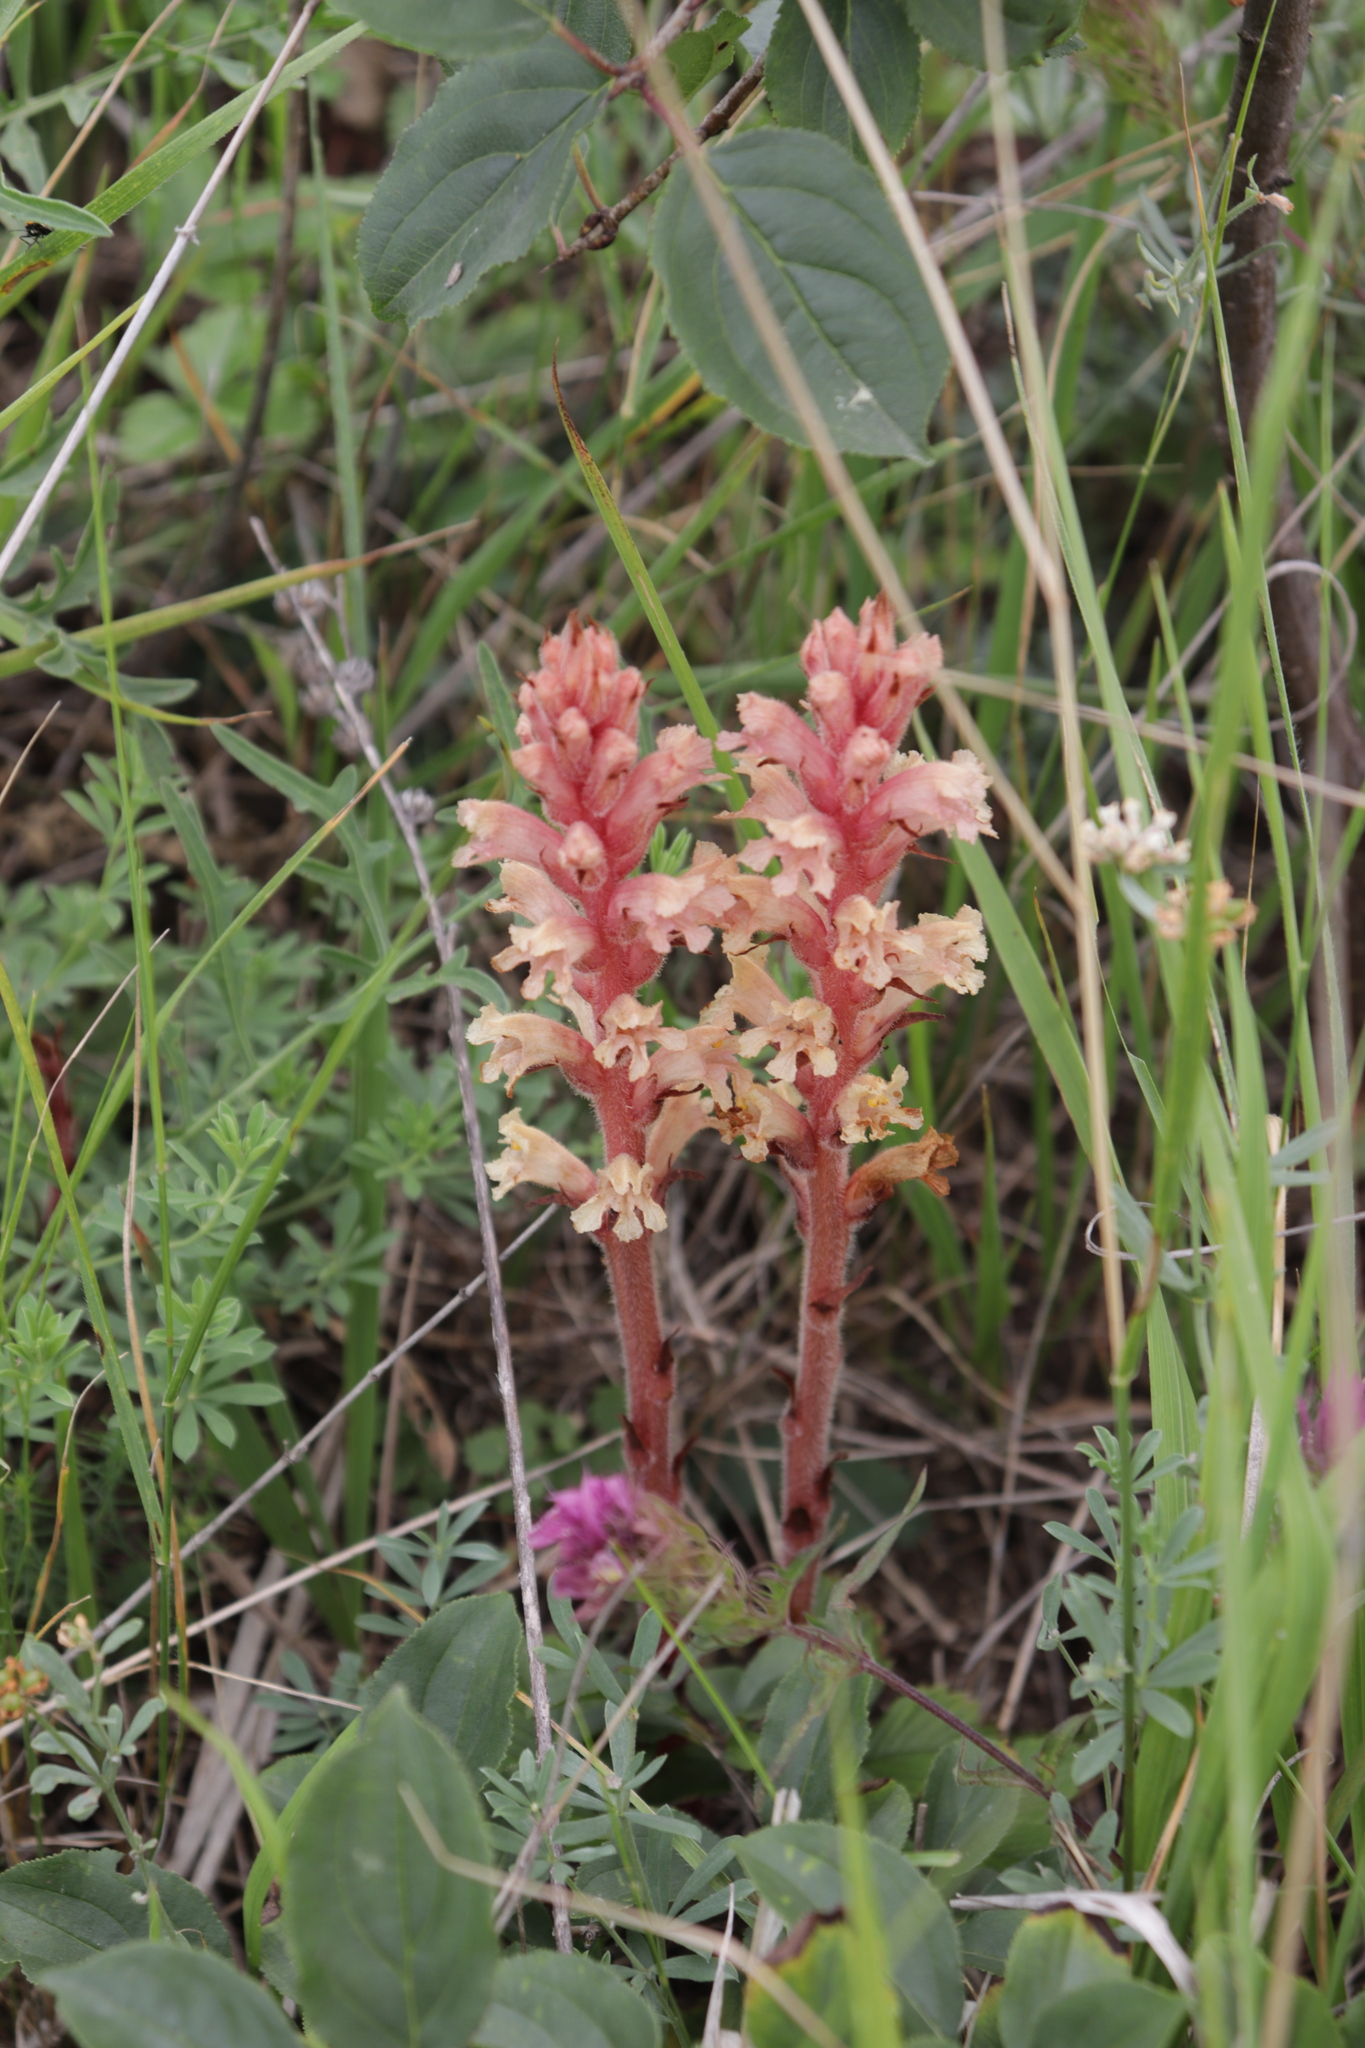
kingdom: Plantae
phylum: Tracheophyta
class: Magnoliopsida
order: Lamiales
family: Orobanchaceae
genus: Orobanche
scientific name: Orobanche centaurina
